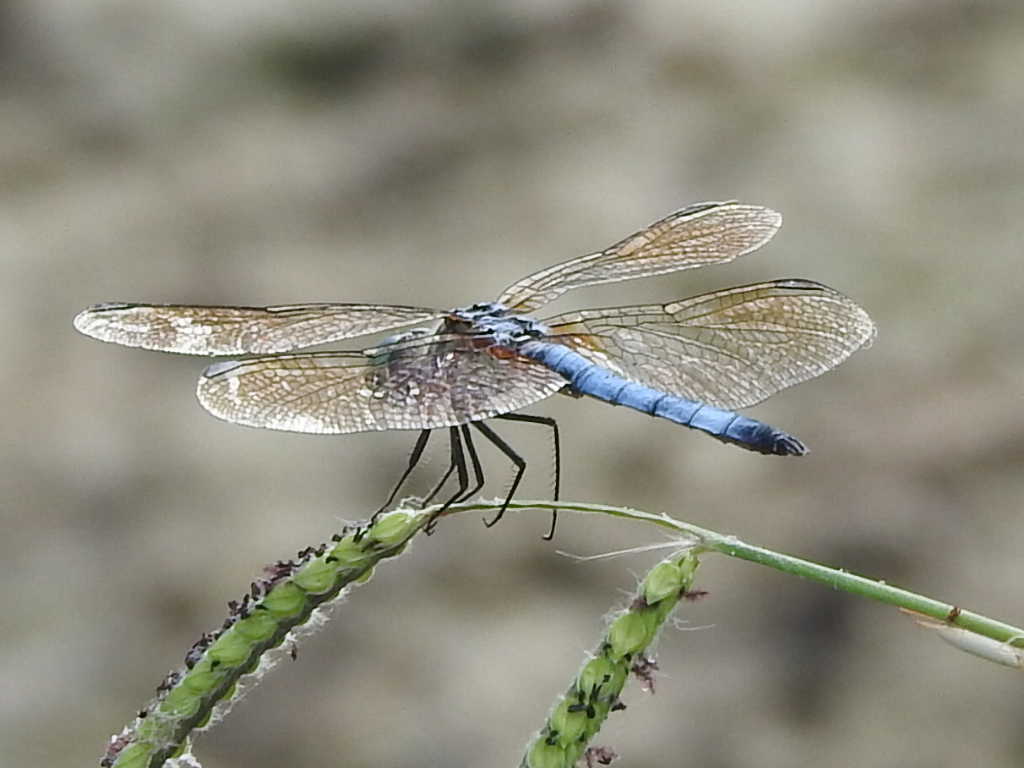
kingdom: Animalia
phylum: Arthropoda
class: Insecta
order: Odonata
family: Libellulidae
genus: Pachydiplax
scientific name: Pachydiplax longipennis
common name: Blue dasher
